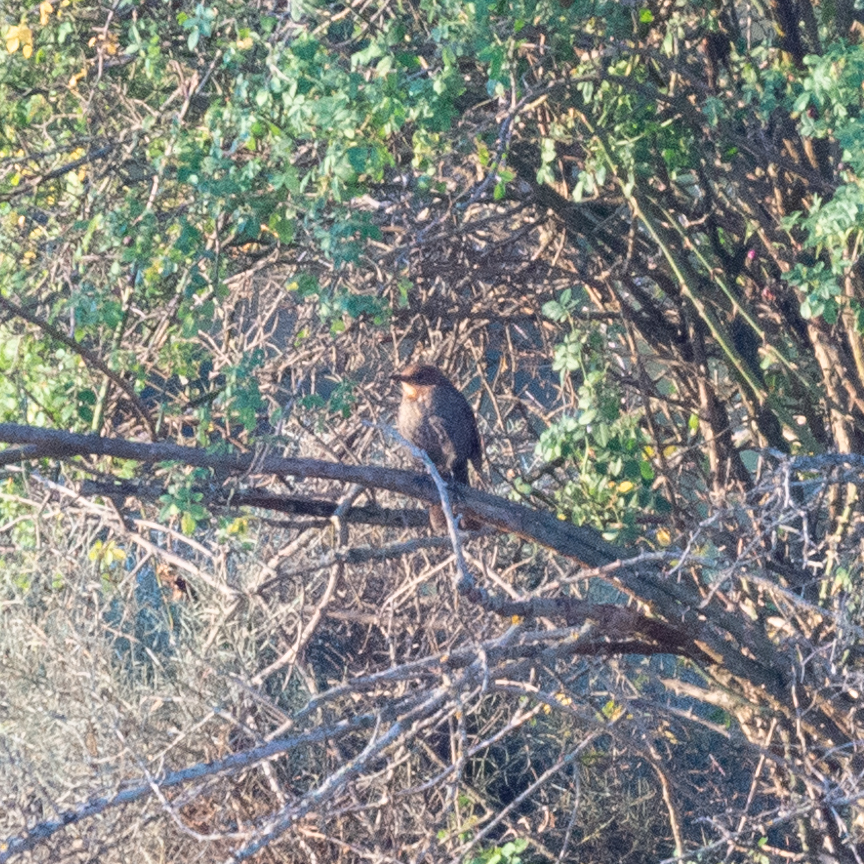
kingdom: Animalia
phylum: Chordata
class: Aves
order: Passeriformes
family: Muscicapidae
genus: Erithacus
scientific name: Erithacus rubecula
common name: European robin
